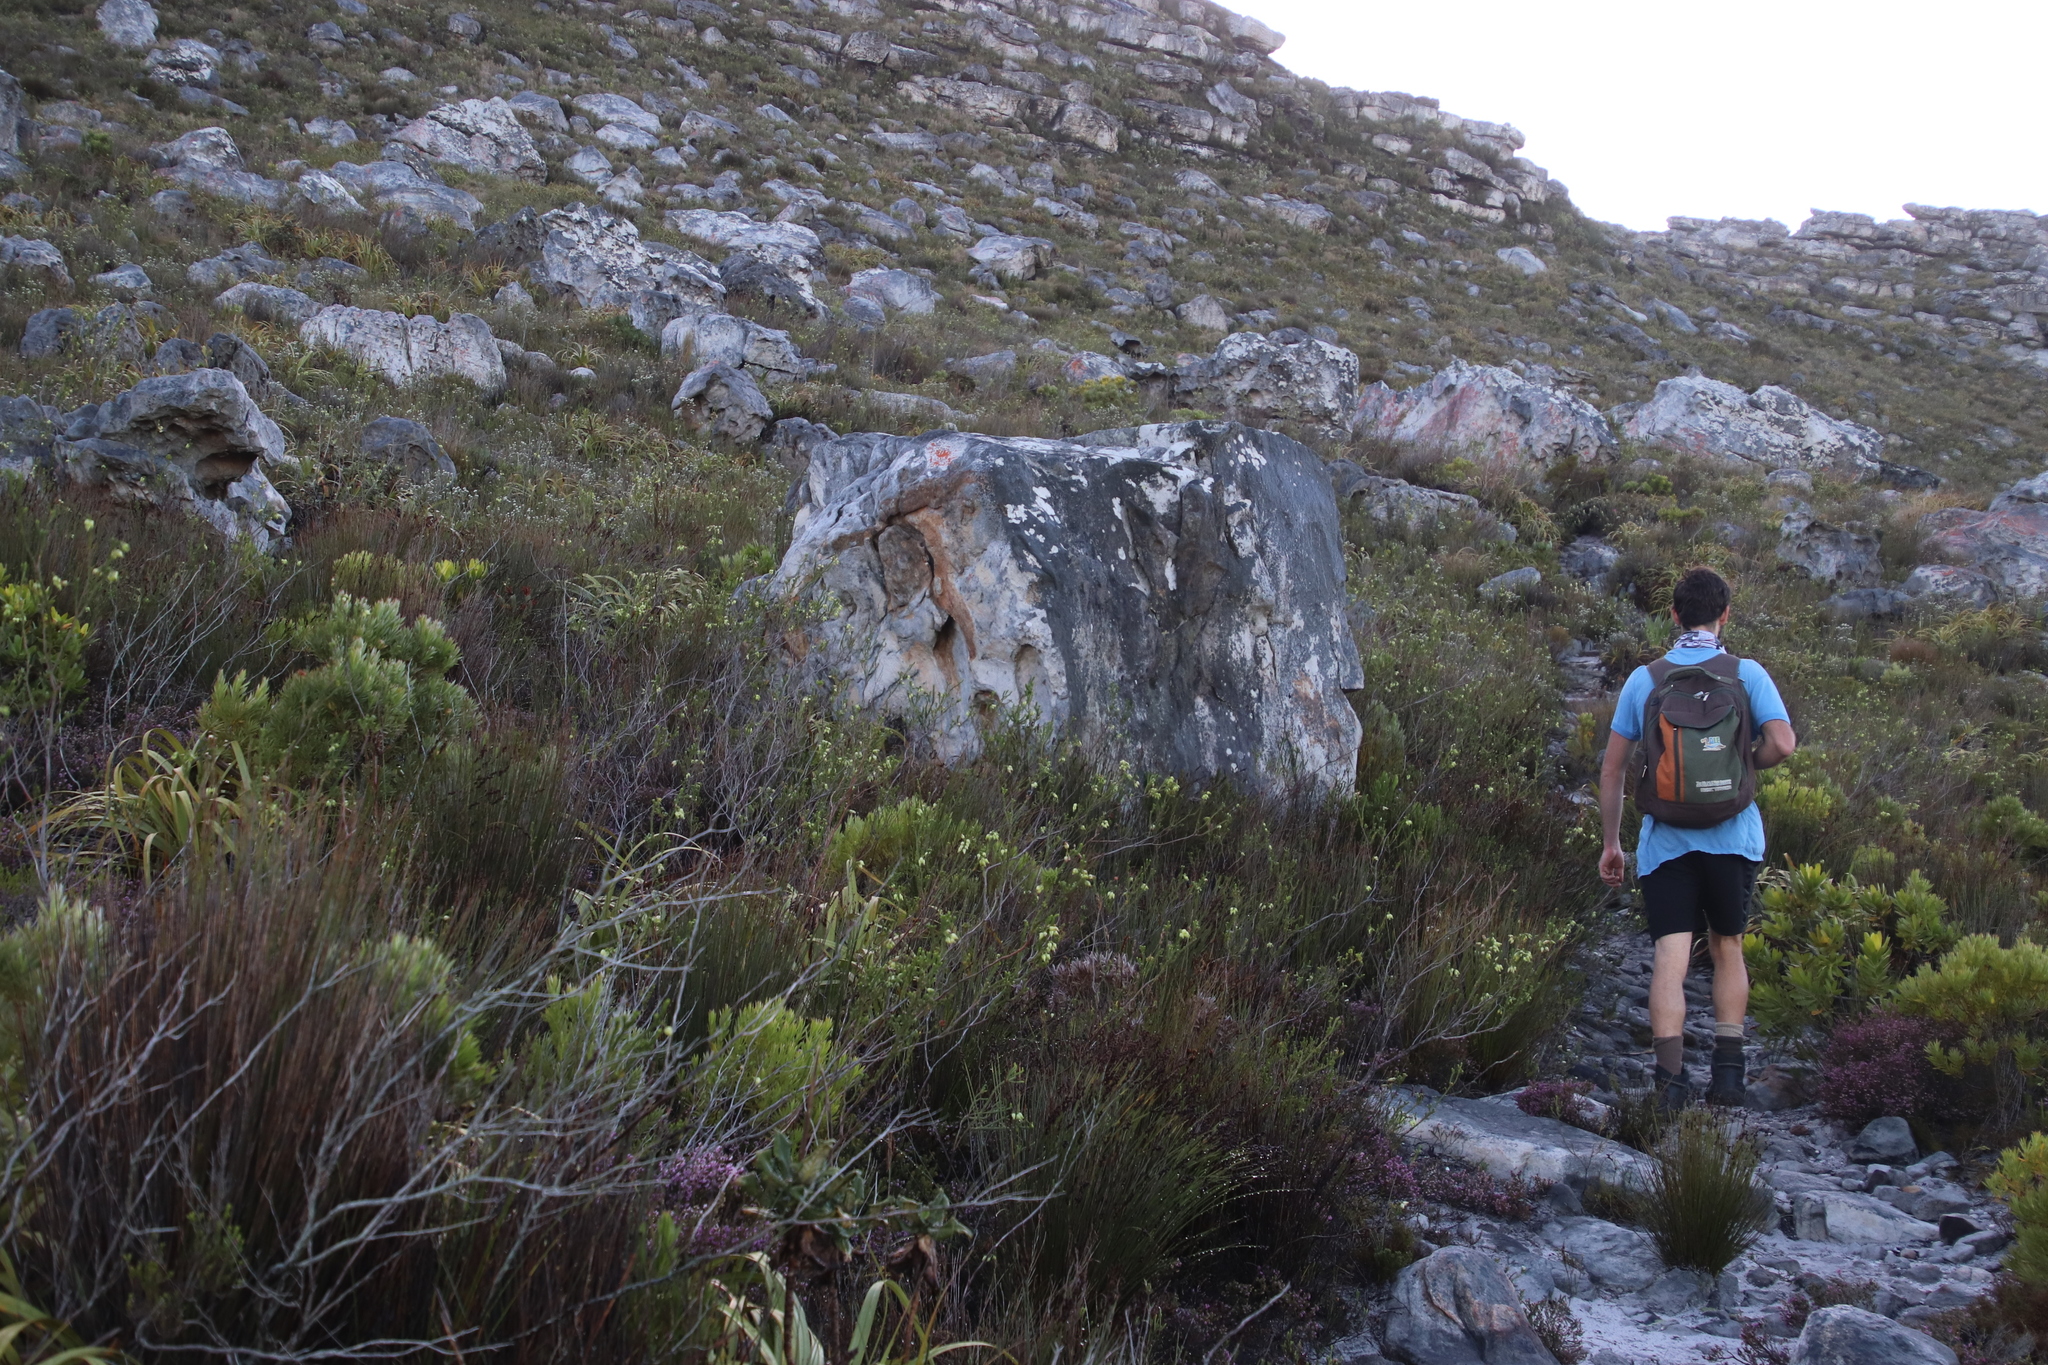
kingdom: Plantae
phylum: Tracheophyta
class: Magnoliopsida
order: Ericales
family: Ericaceae
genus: Erica
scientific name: Erica urna-viridis
